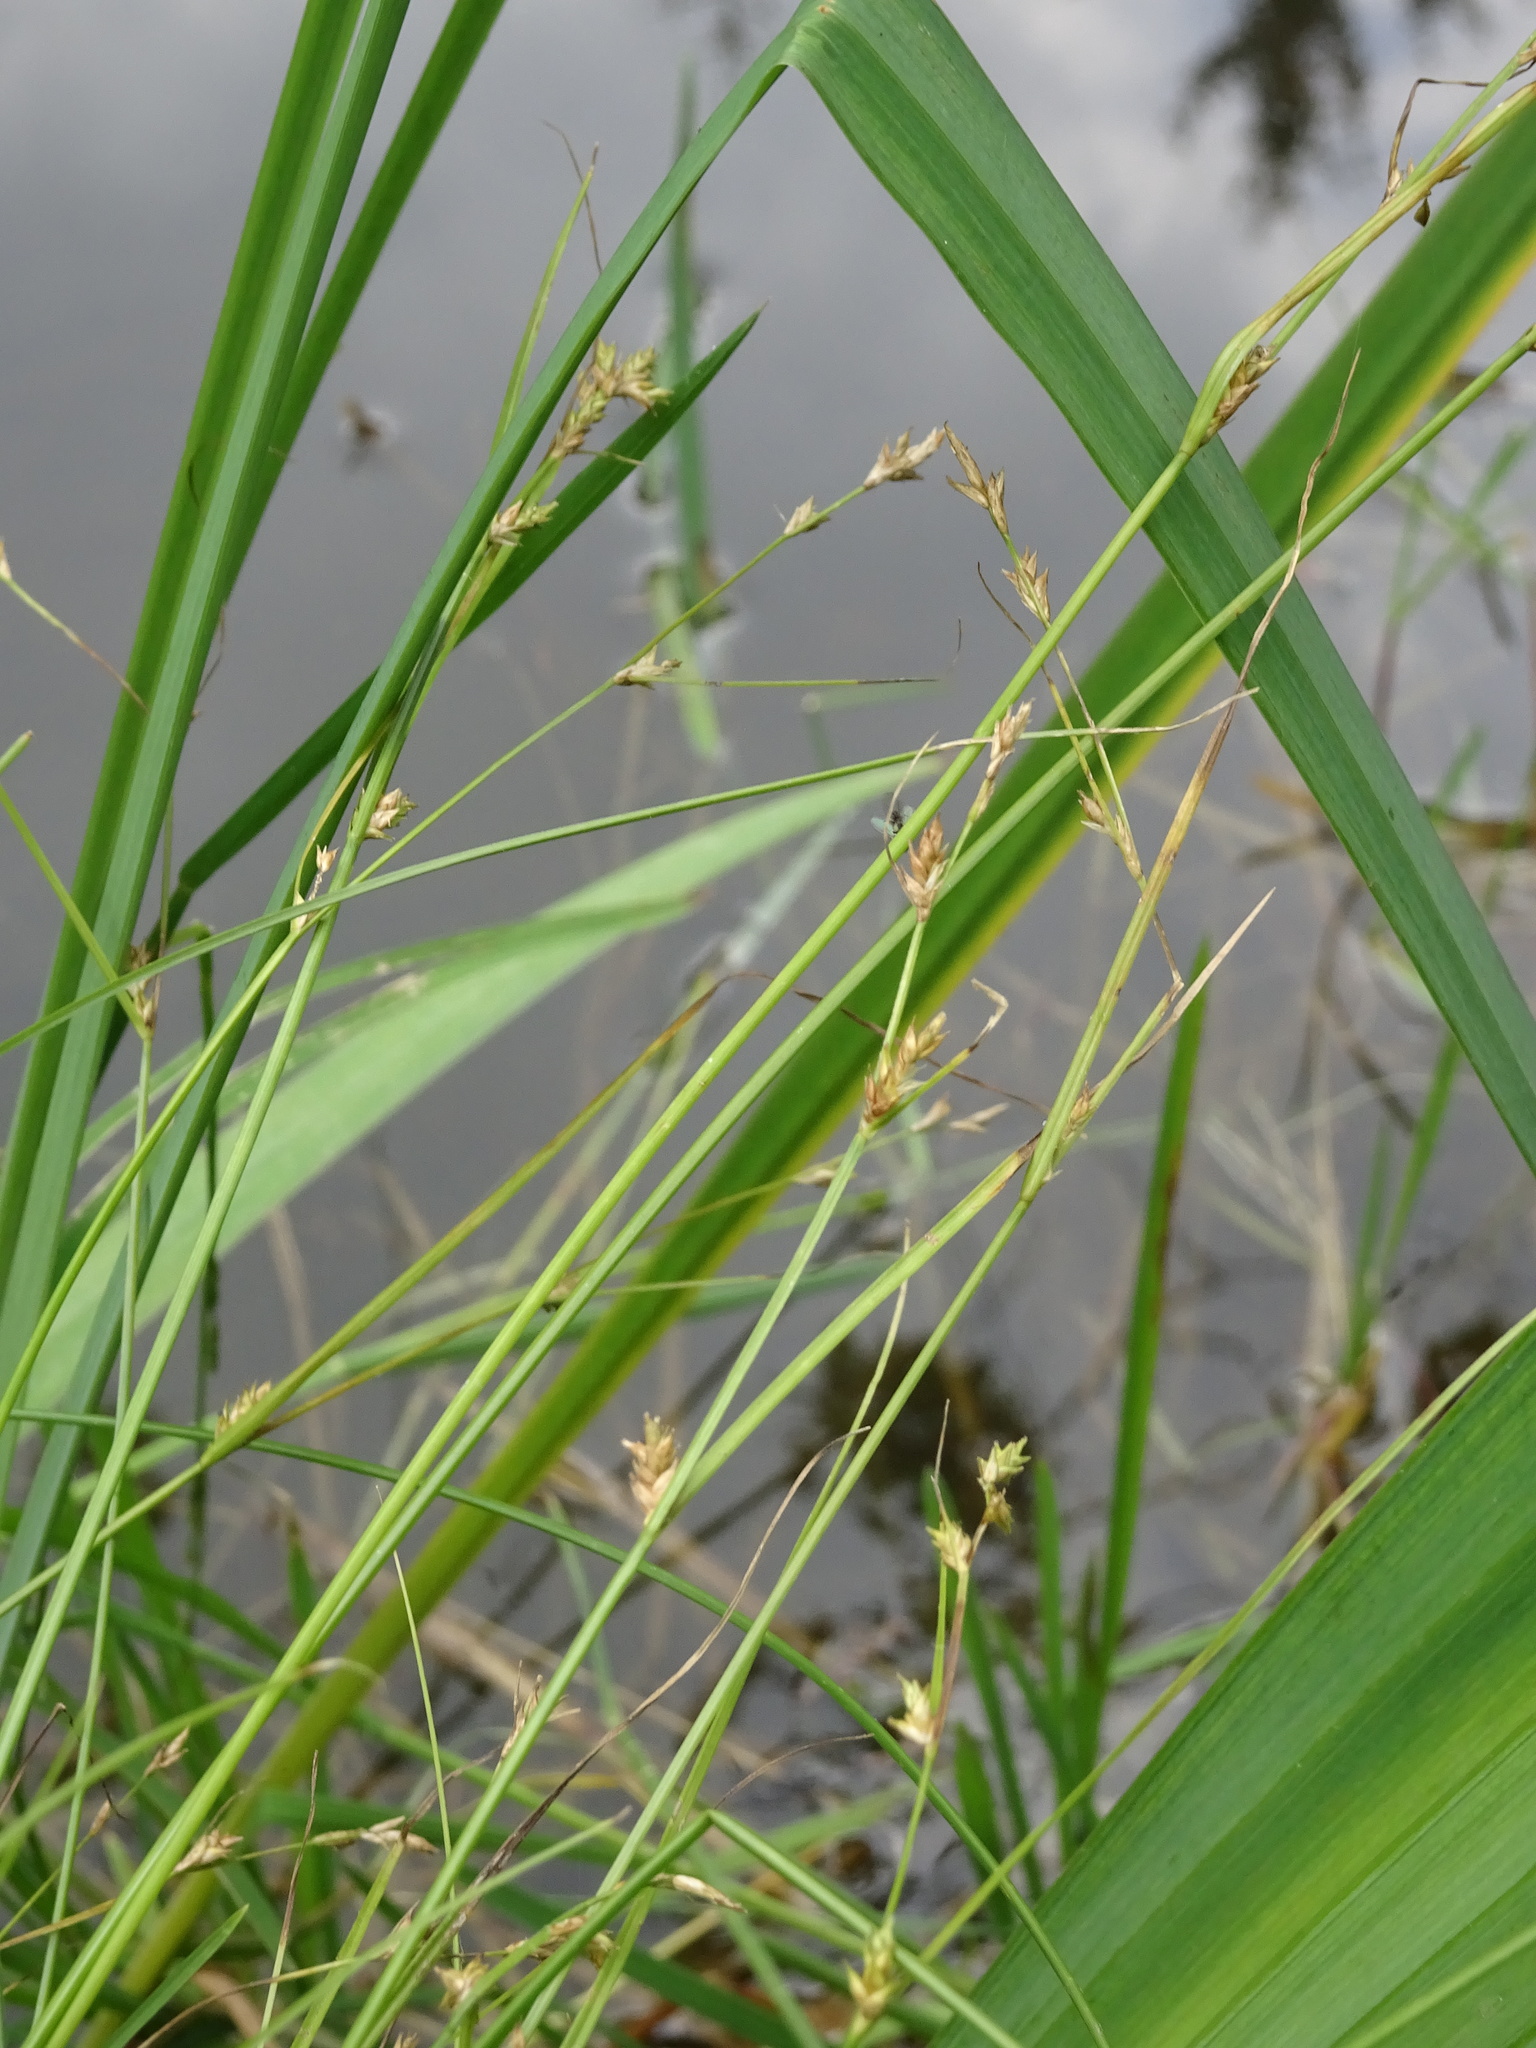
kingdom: Plantae
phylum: Tracheophyta
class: Liliopsida
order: Poales
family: Cyperaceae
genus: Carex
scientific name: Carex remota
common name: Remote sedge
